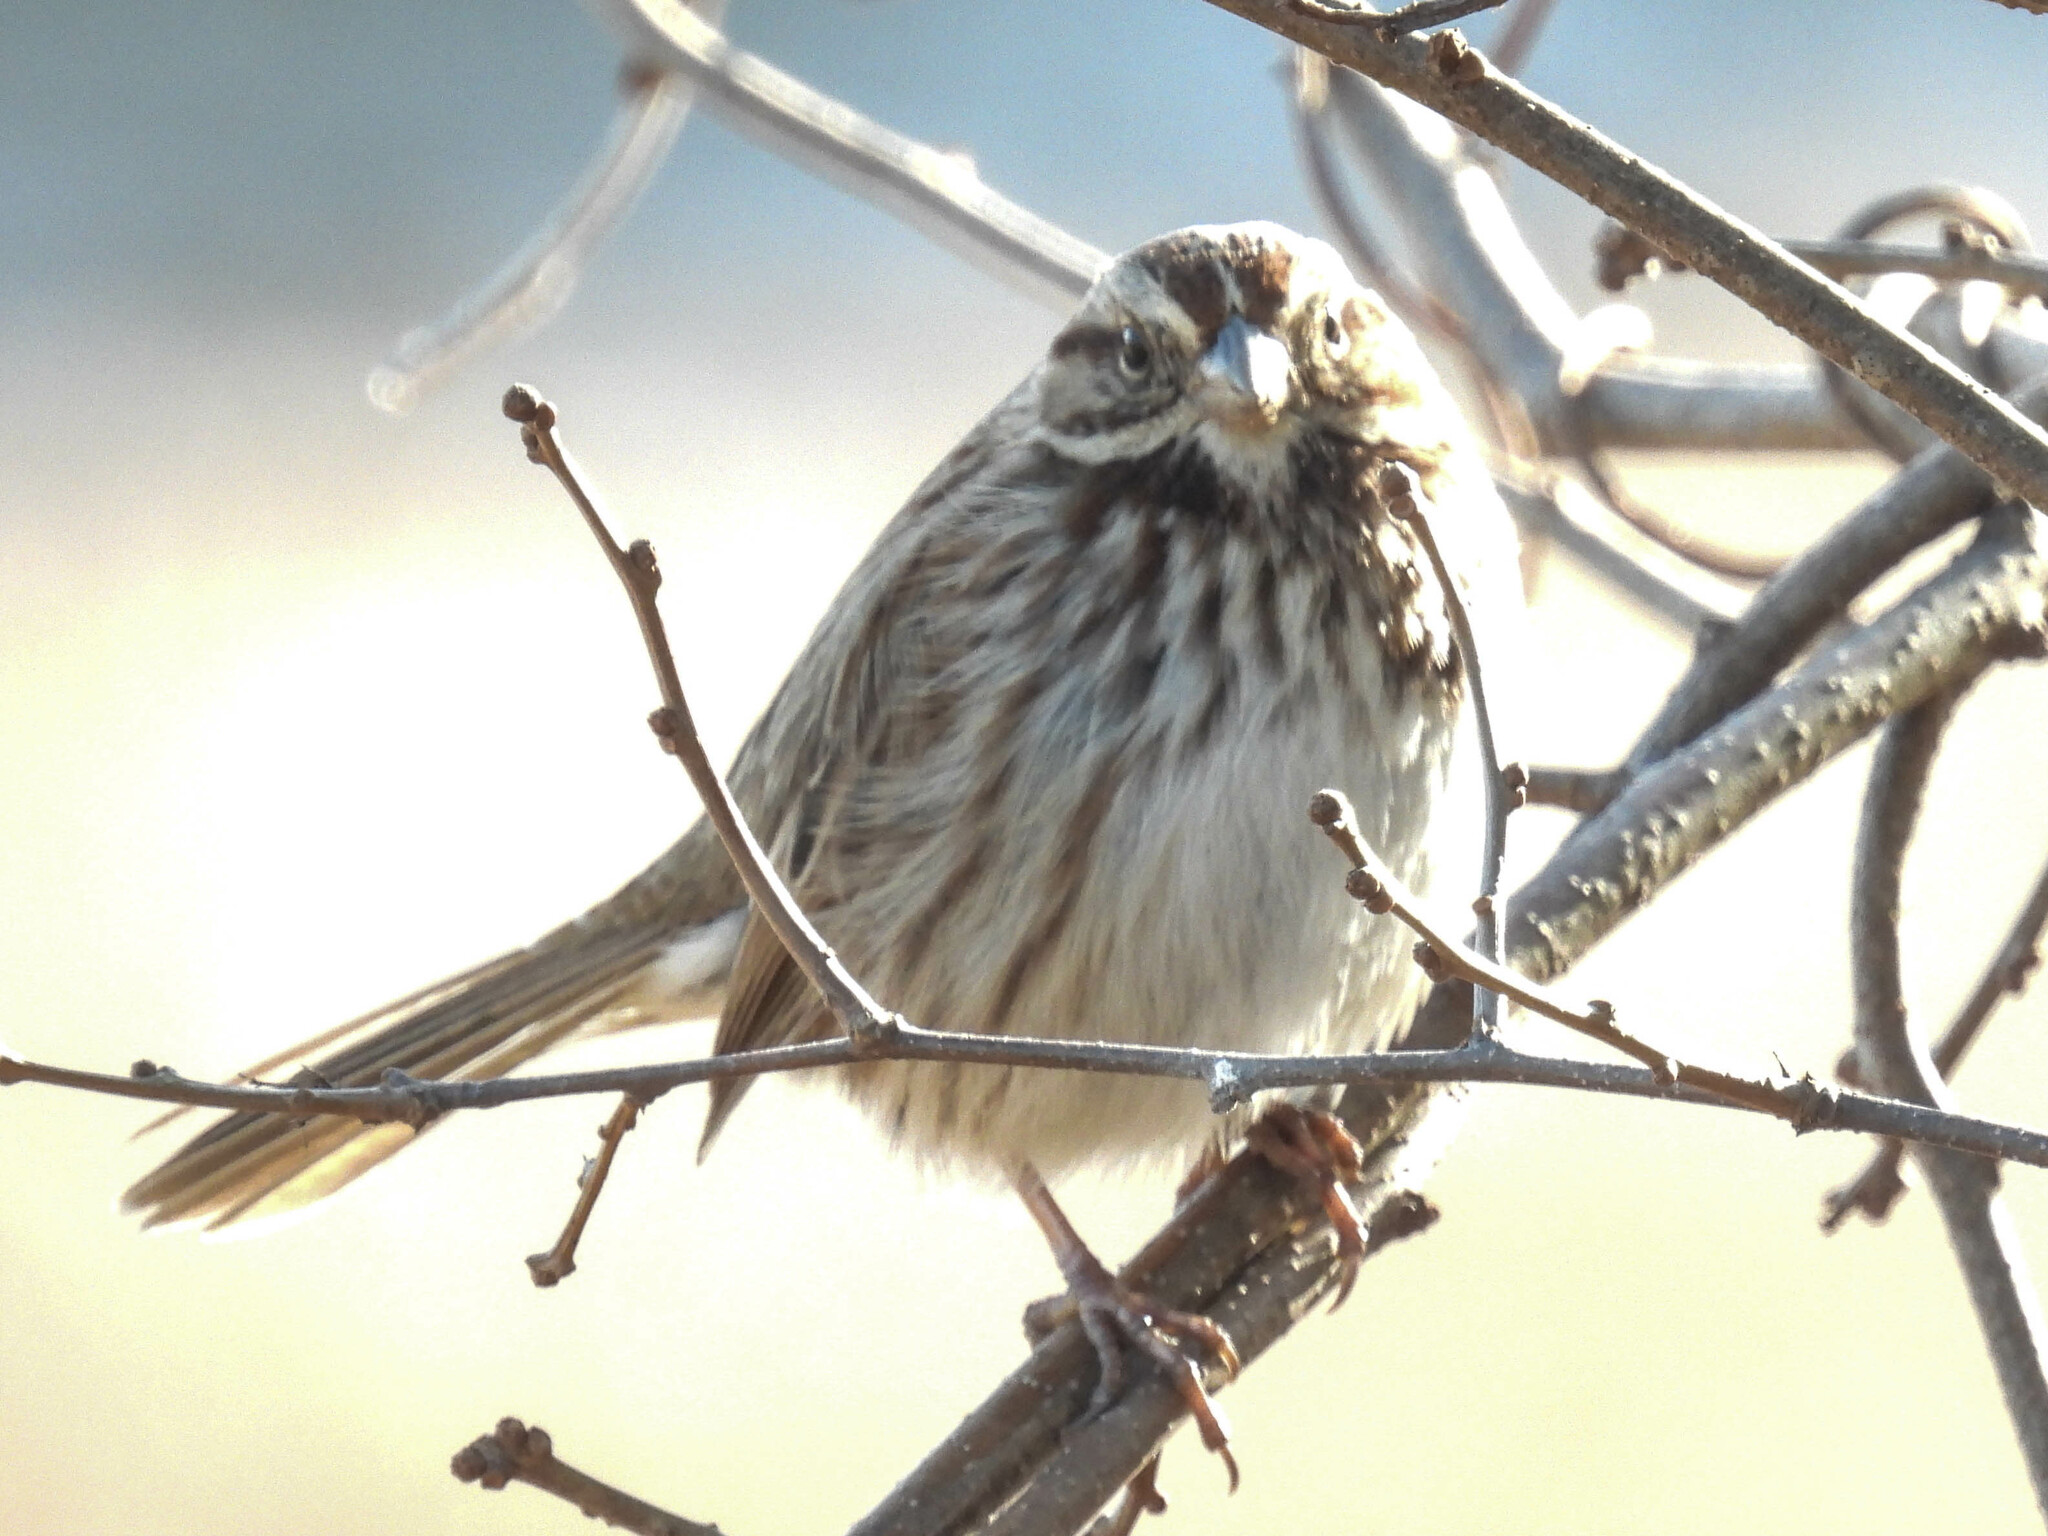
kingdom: Animalia
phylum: Chordata
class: Aves
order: Passeriformes
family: Passerellidae
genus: Melospiza
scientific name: Melospiza melodia
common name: Song sparrow
